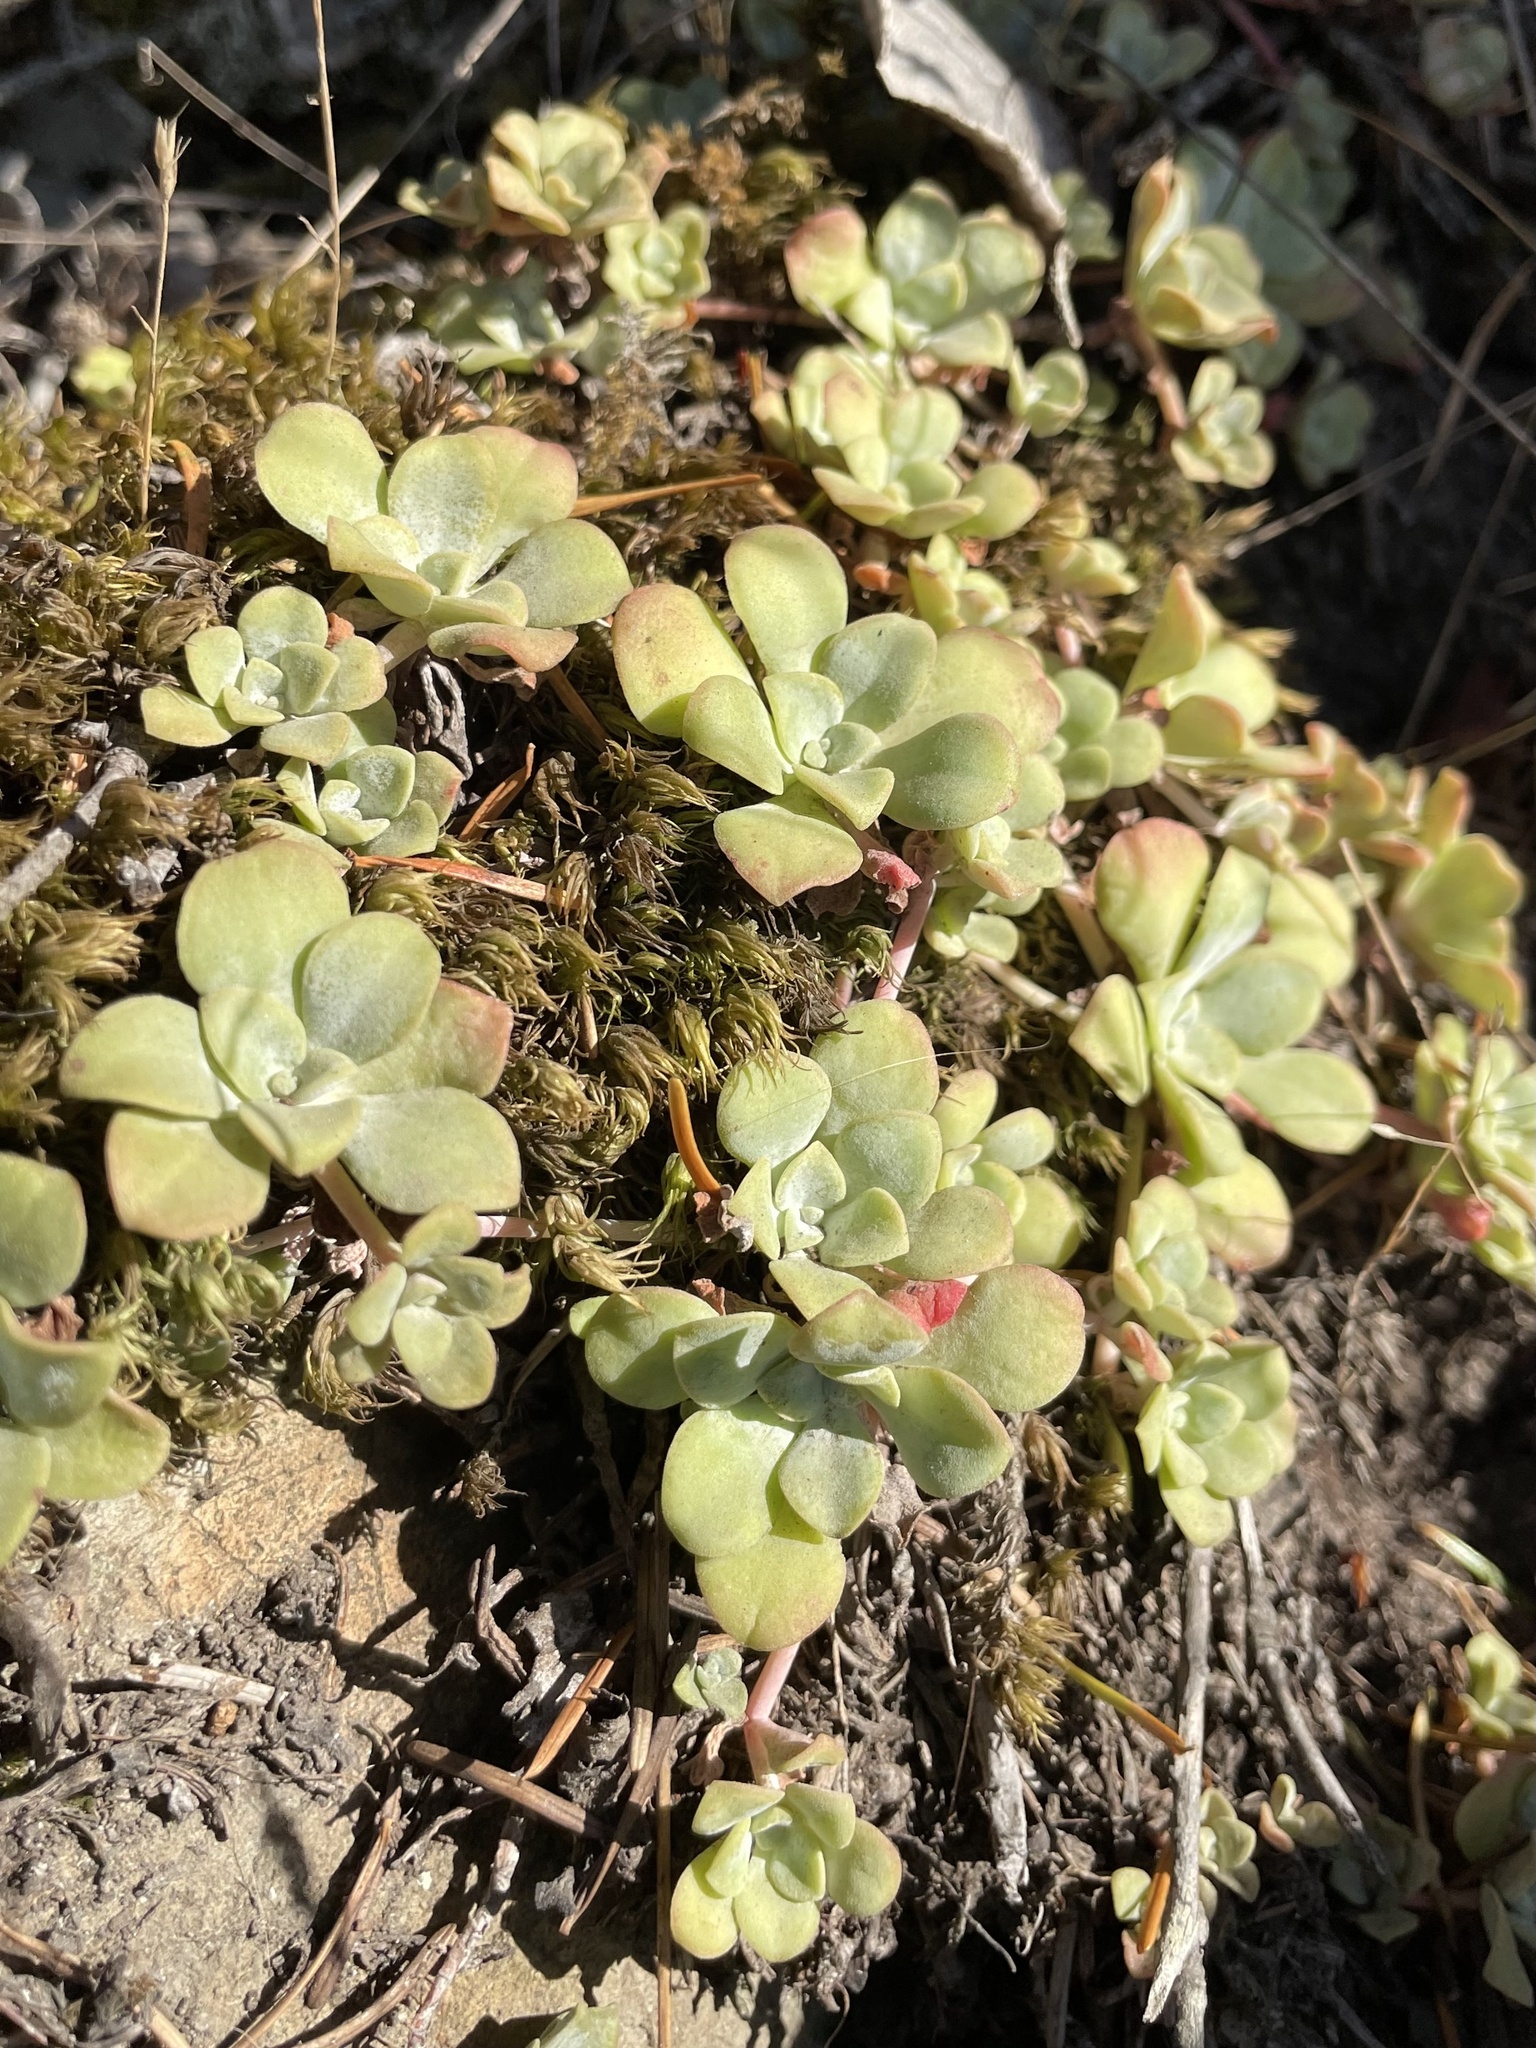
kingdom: Plantae
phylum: Tracheophyta
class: Magnoliopsida
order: Saxifragales
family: Crassulaceae
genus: Sedum
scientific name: Sedum spathulifolium
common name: Colorado stonecrop
